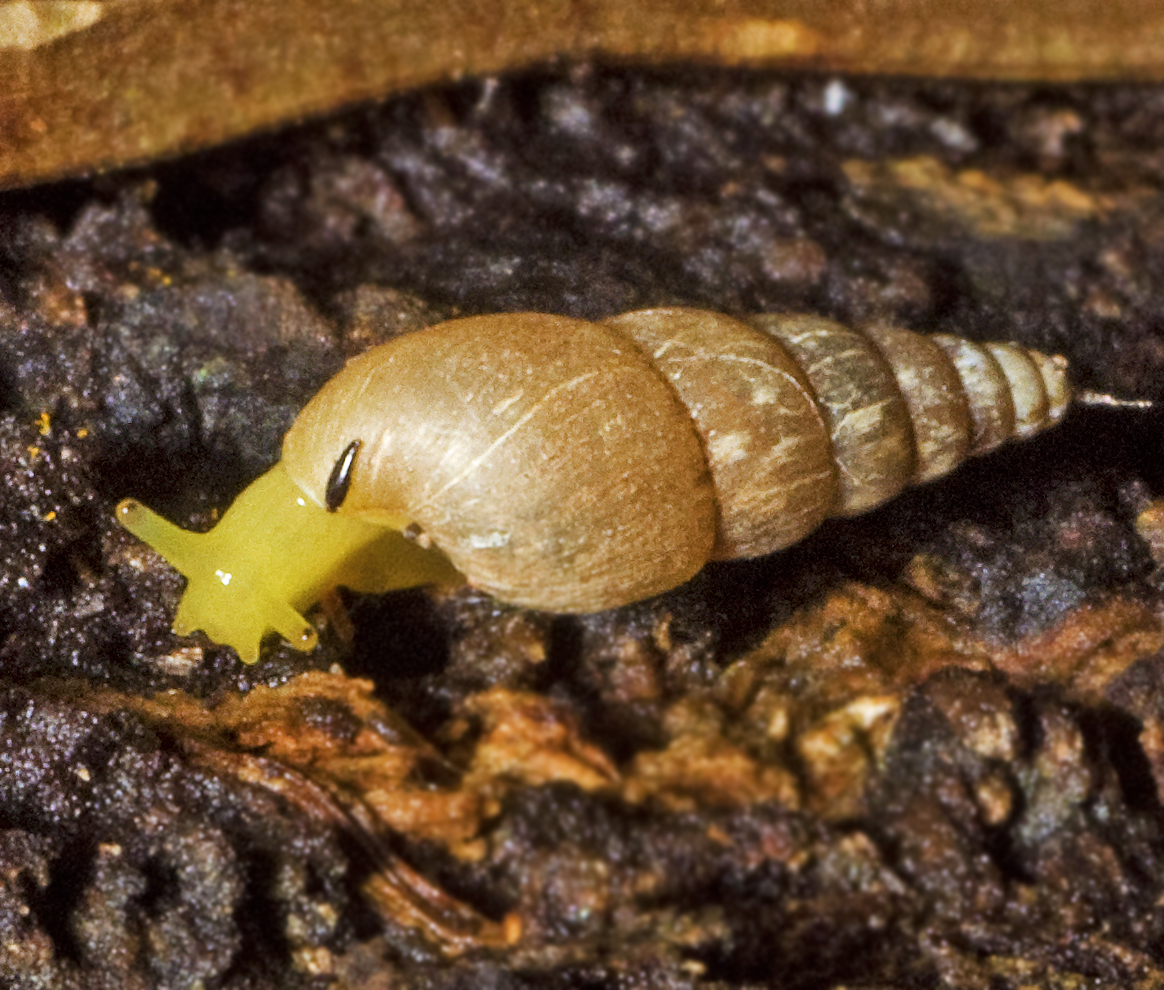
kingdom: Animalia
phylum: Mollusca
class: Gastropoda
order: Stylommatophora
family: Achatinidae
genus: Paropeas
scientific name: Paropeas achatinaceum
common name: Snail
